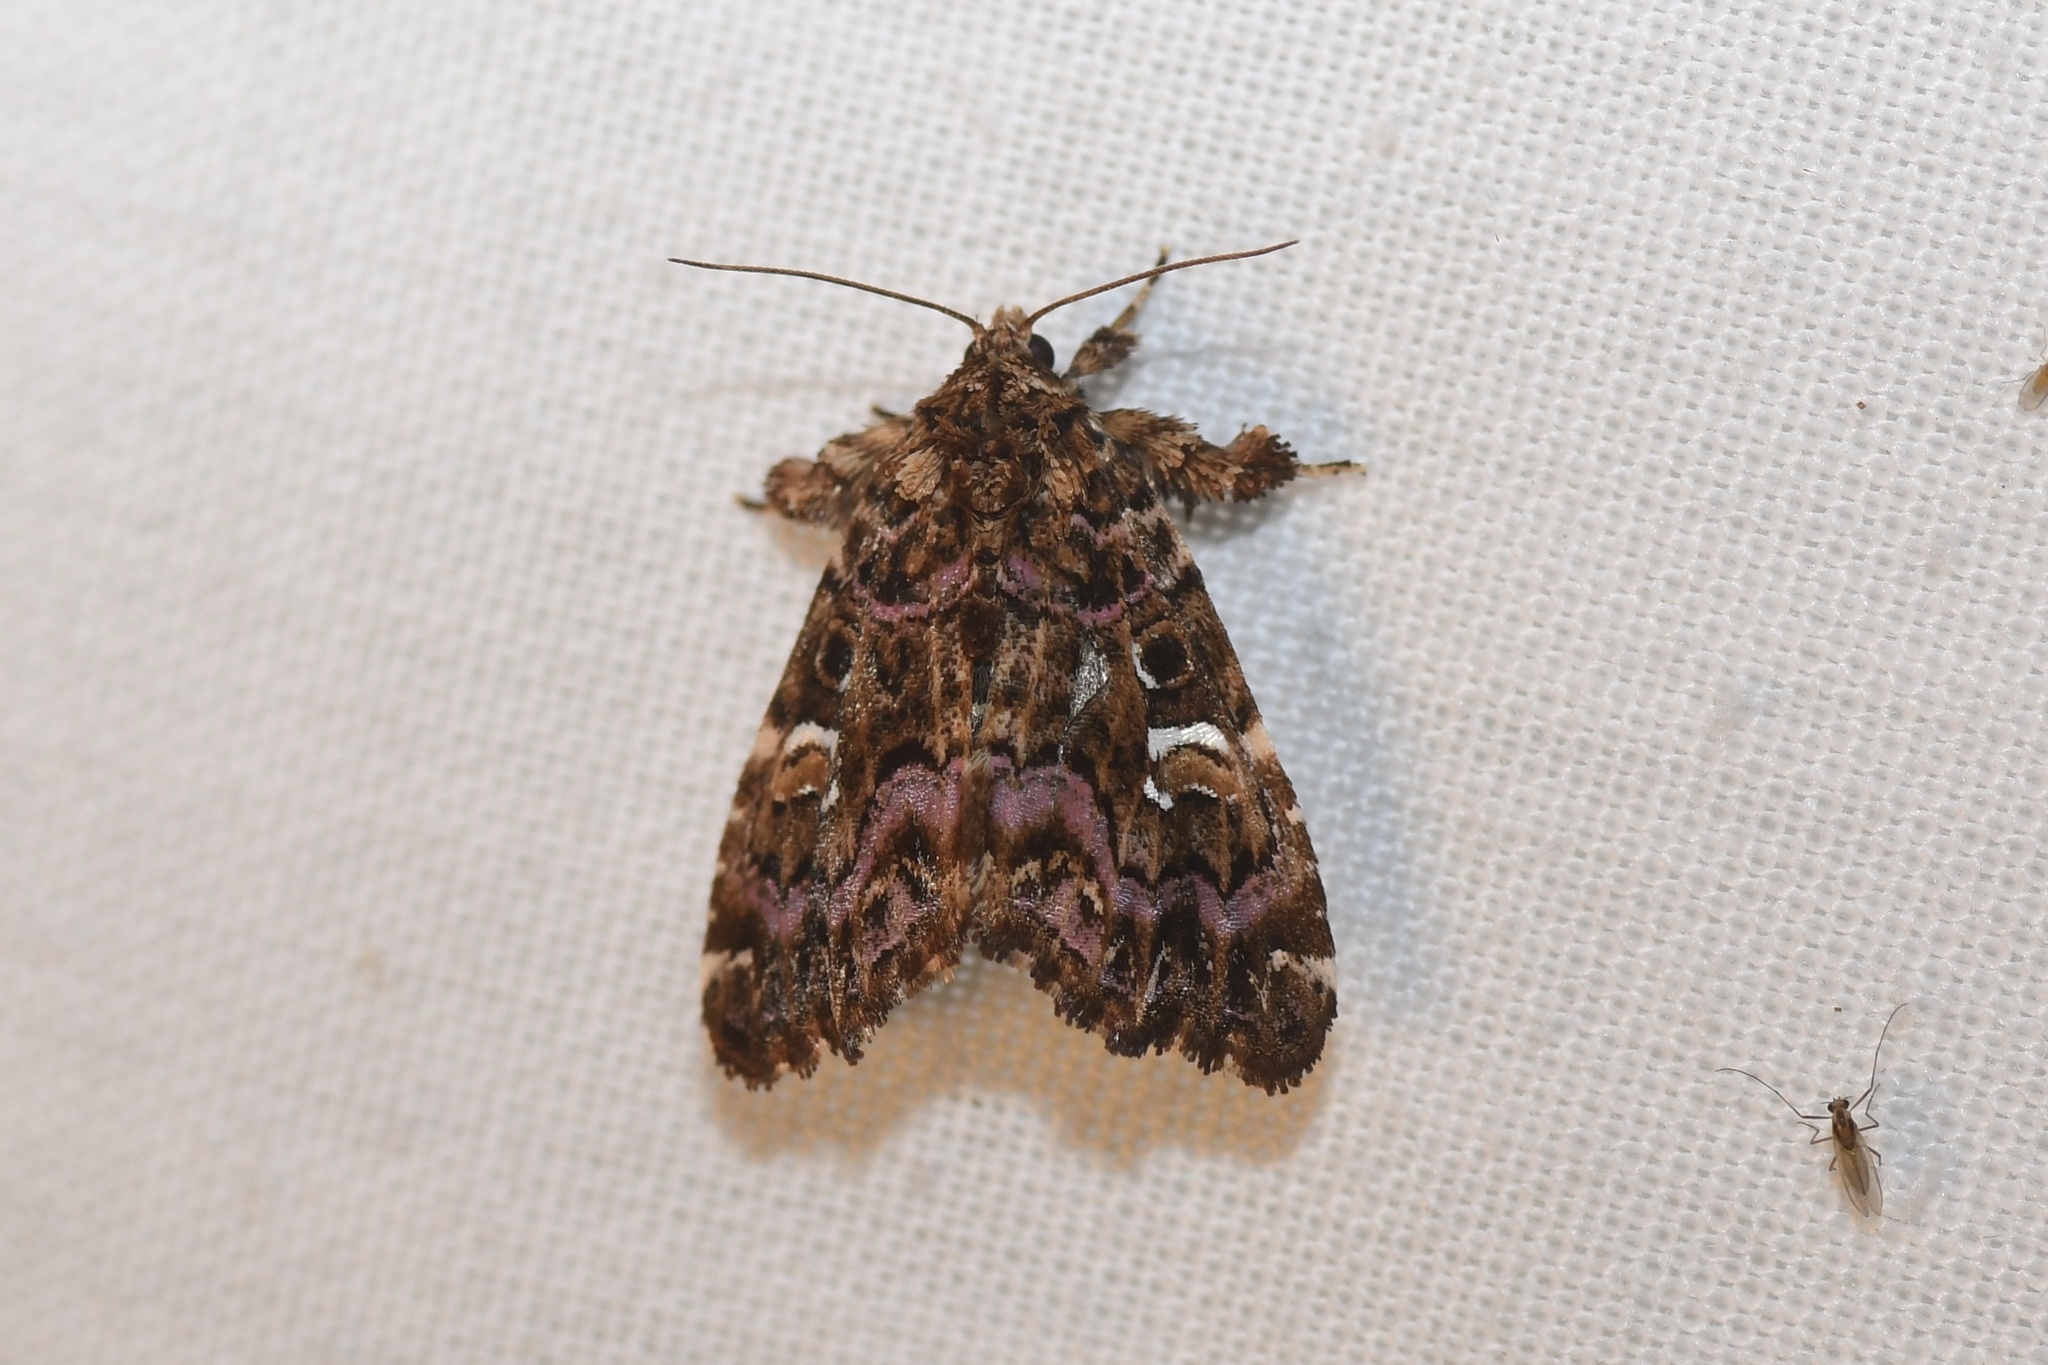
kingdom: Animalia
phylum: Arthropoda
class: Insecta
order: Lepidoptera
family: Noctuidae
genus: Callopistria
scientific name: Callopistria mollissima
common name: Pink-shaded fern moth
